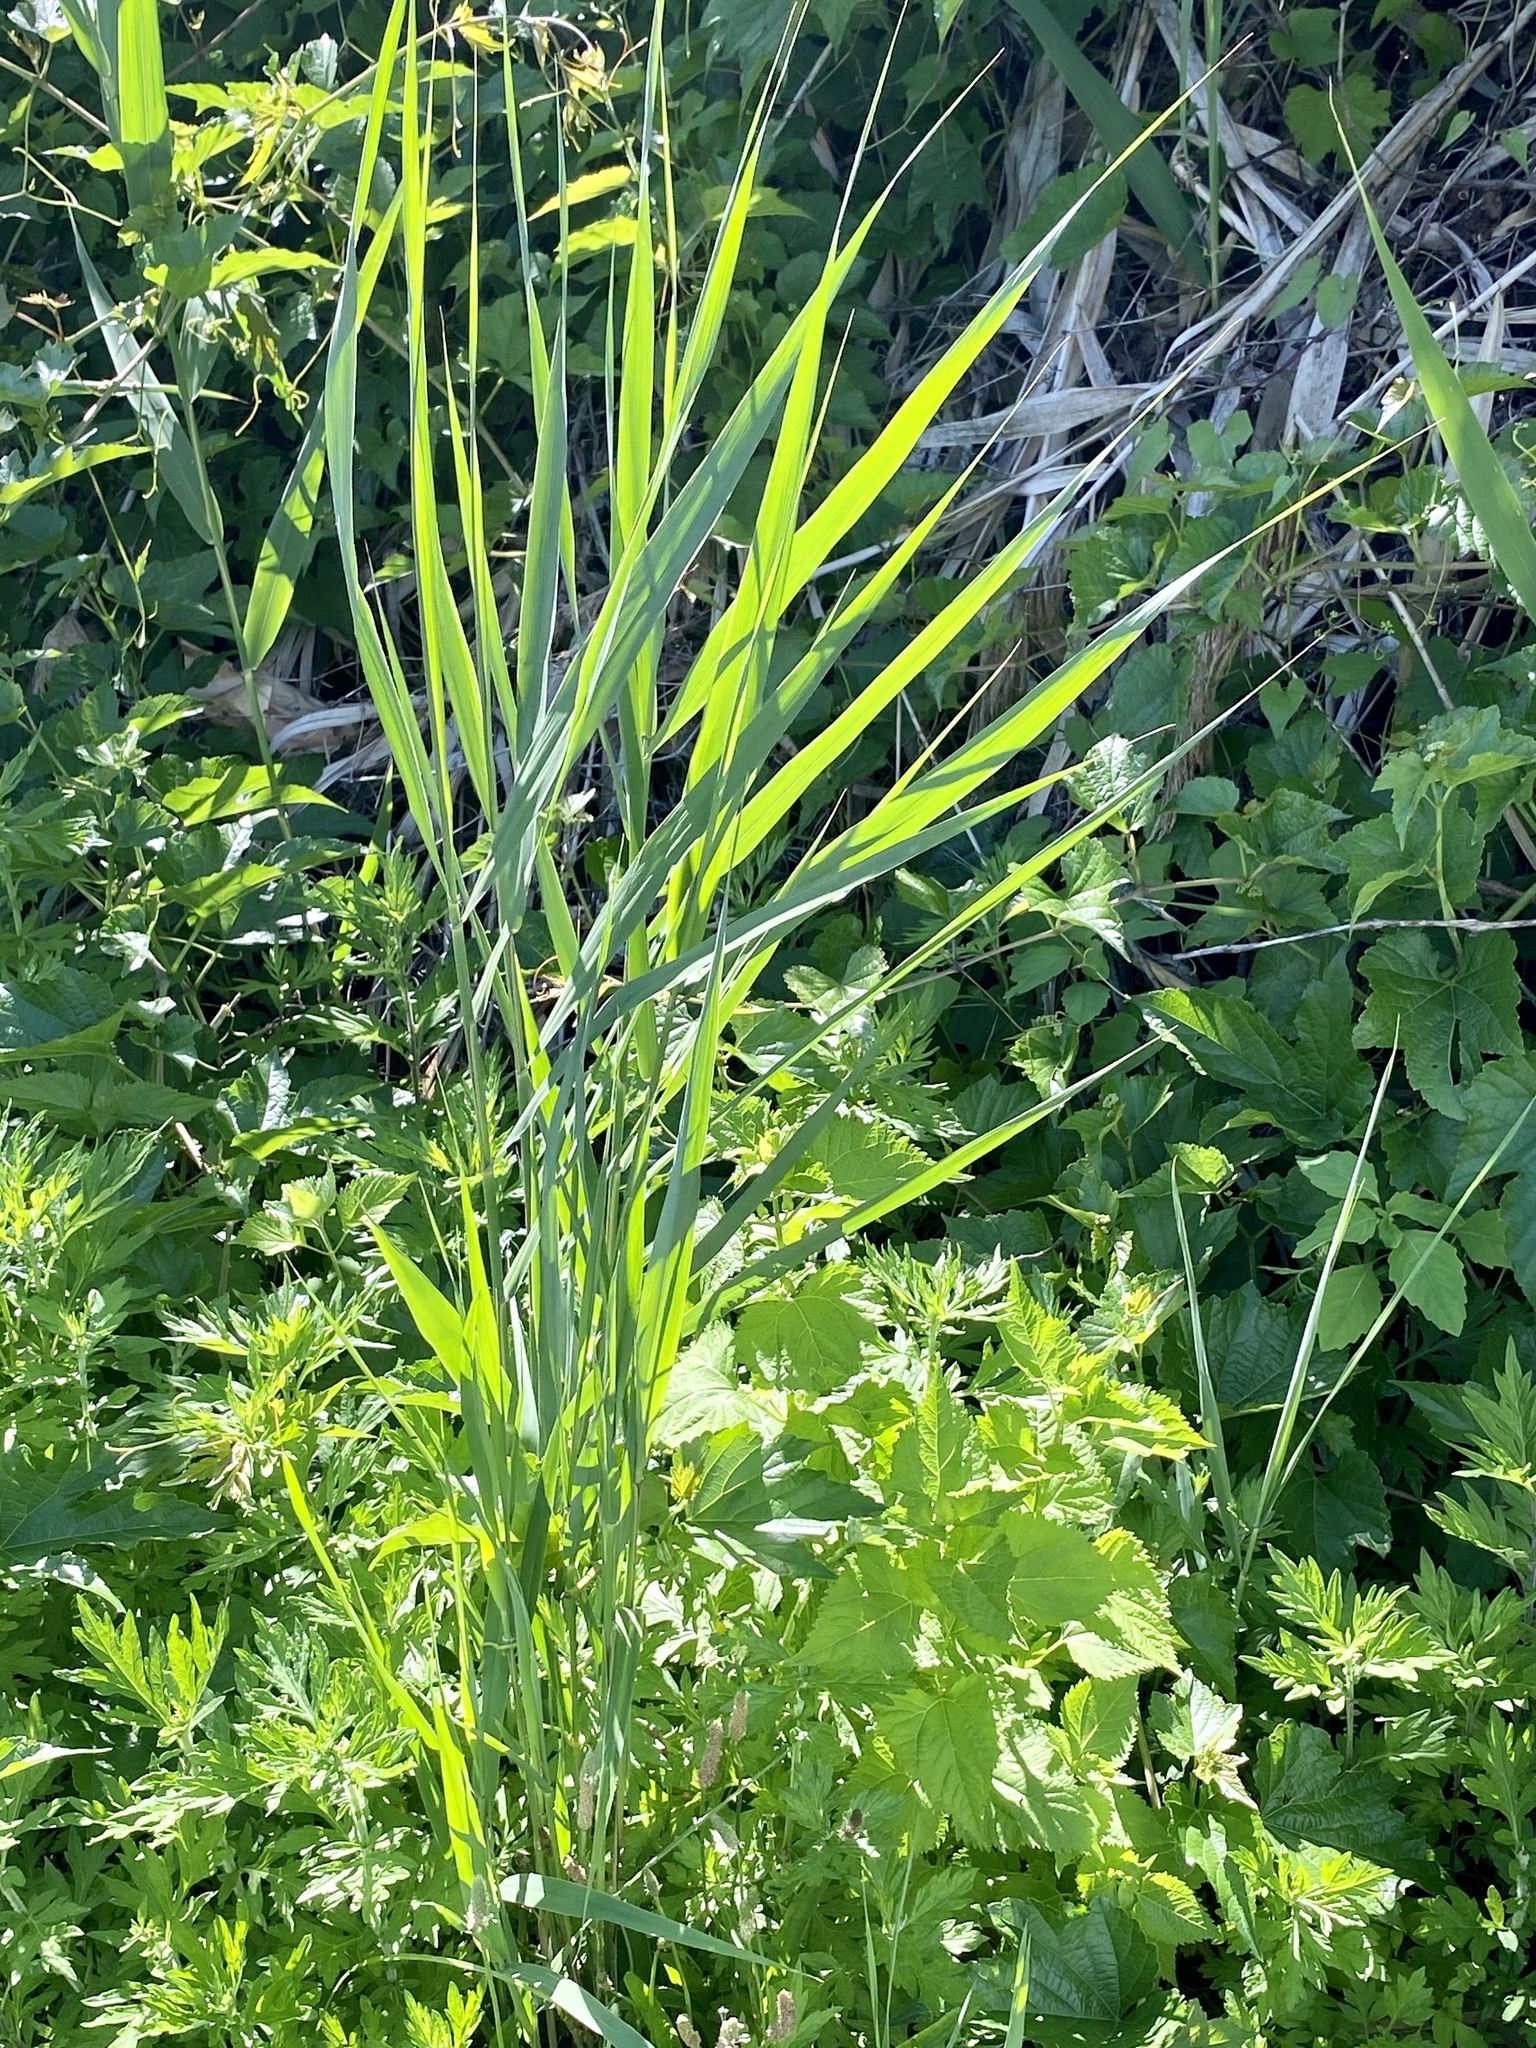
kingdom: Plantae
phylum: Tracheophyta
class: Liliopsida
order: Poales
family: Poaceae
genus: Phragmites
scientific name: Phragmites australis
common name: Common reed
